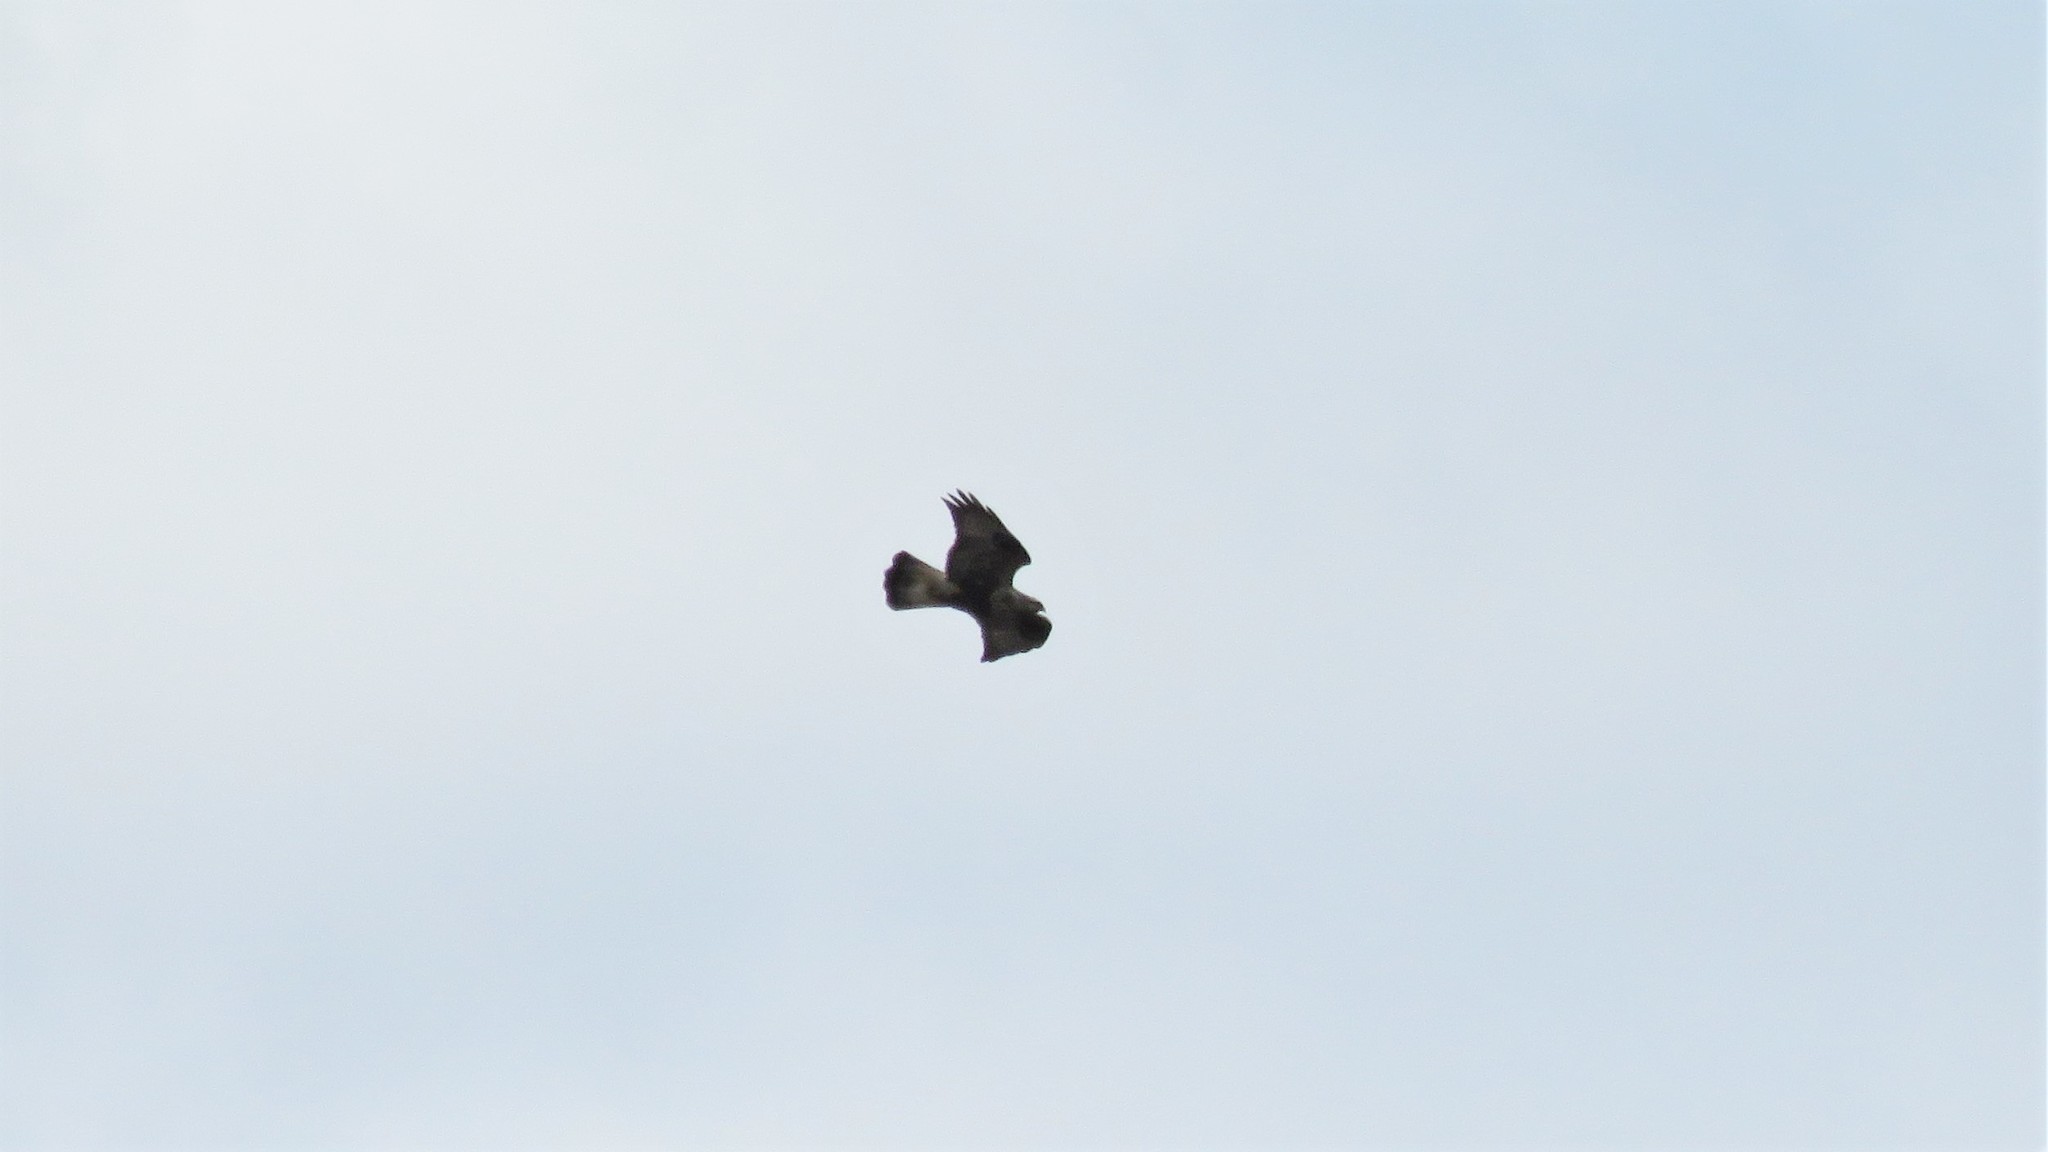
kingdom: Animalia
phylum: Chordata
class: Aves
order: Accipitriformes
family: Accipitridae
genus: Buteo
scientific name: Buteo lagopus
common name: Rough-legged buzzard
